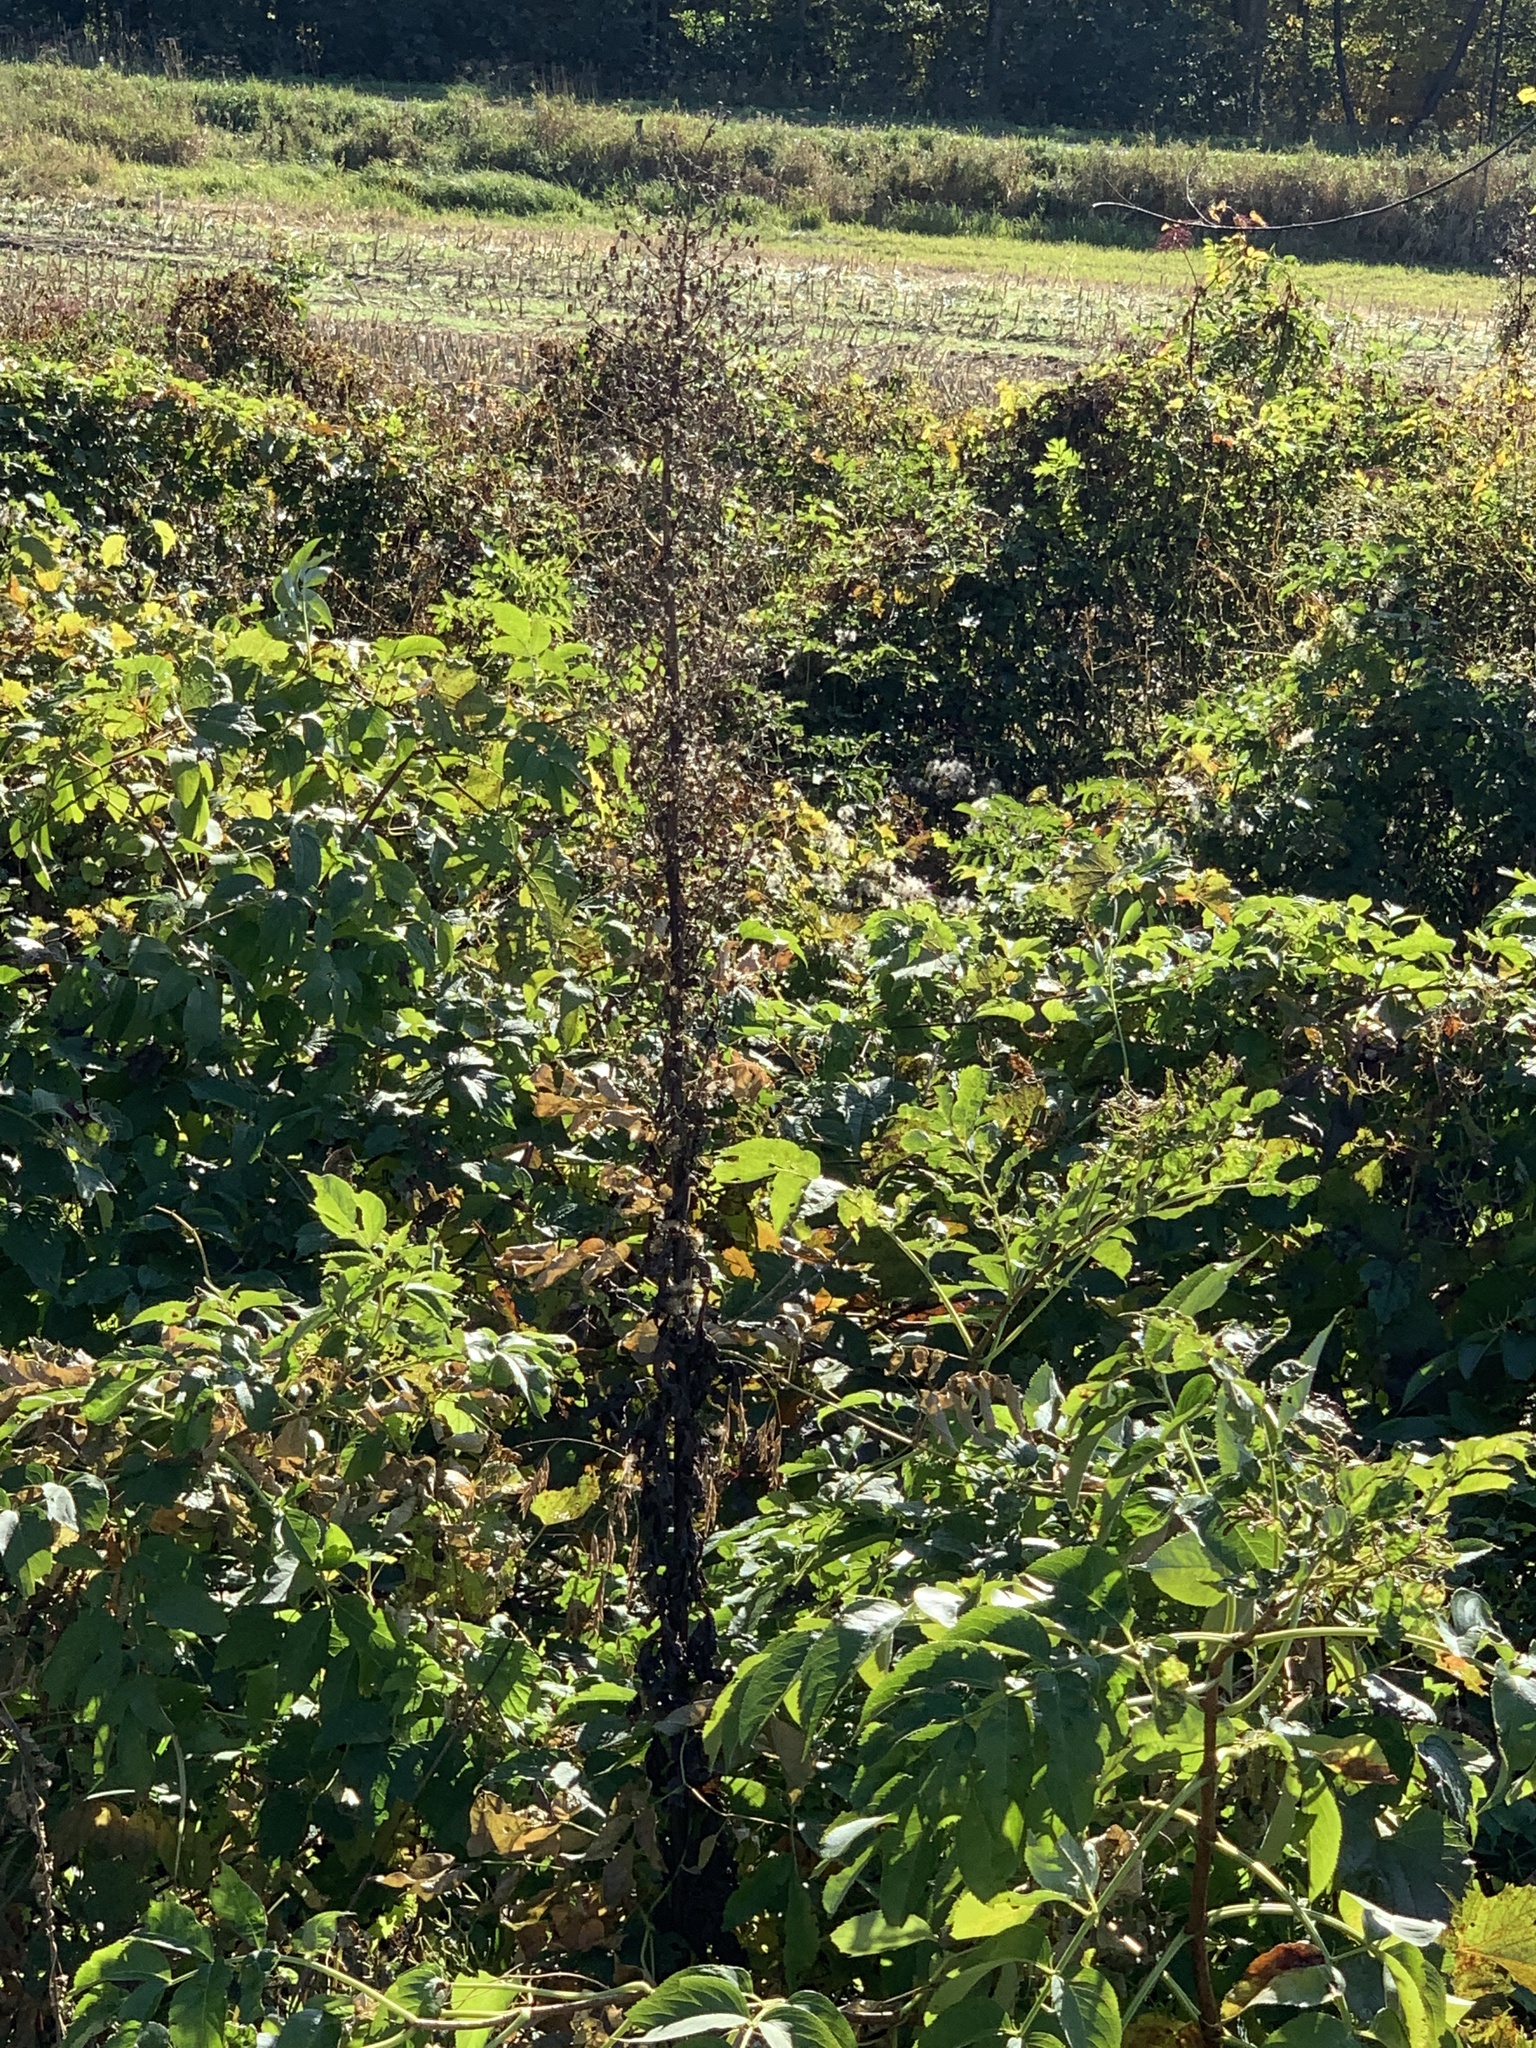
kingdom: Plantae
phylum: Tracheophyta
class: Magnoliopsida
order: Asterales
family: Asteraceae
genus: Lactuca
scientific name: Lactuca biennis
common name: Blue wood lettuce
